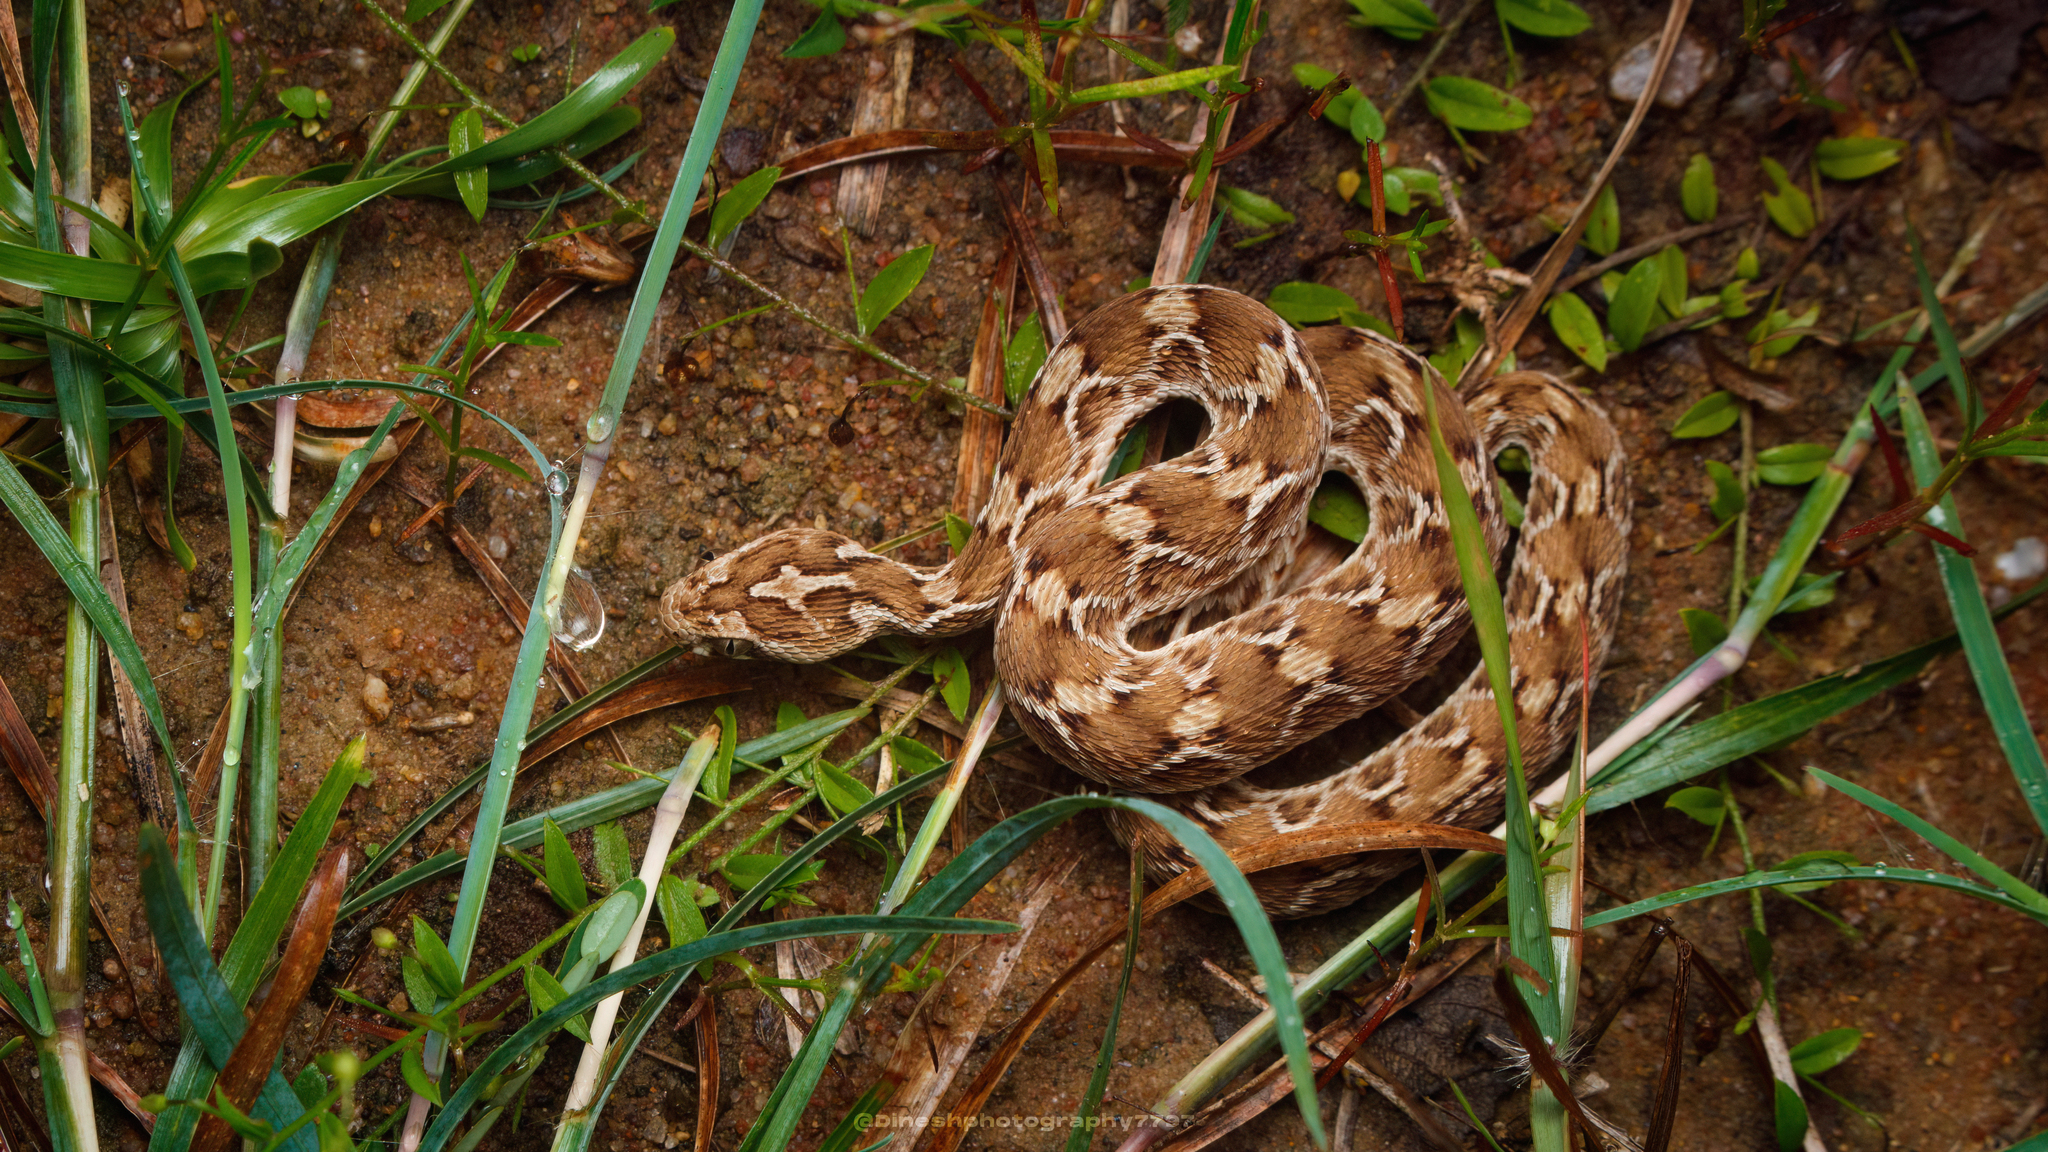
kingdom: Animalia
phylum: Chordata
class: Squamata
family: Viperidae
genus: Echis
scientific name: Echis carinatus
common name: Saw-scaled viper
